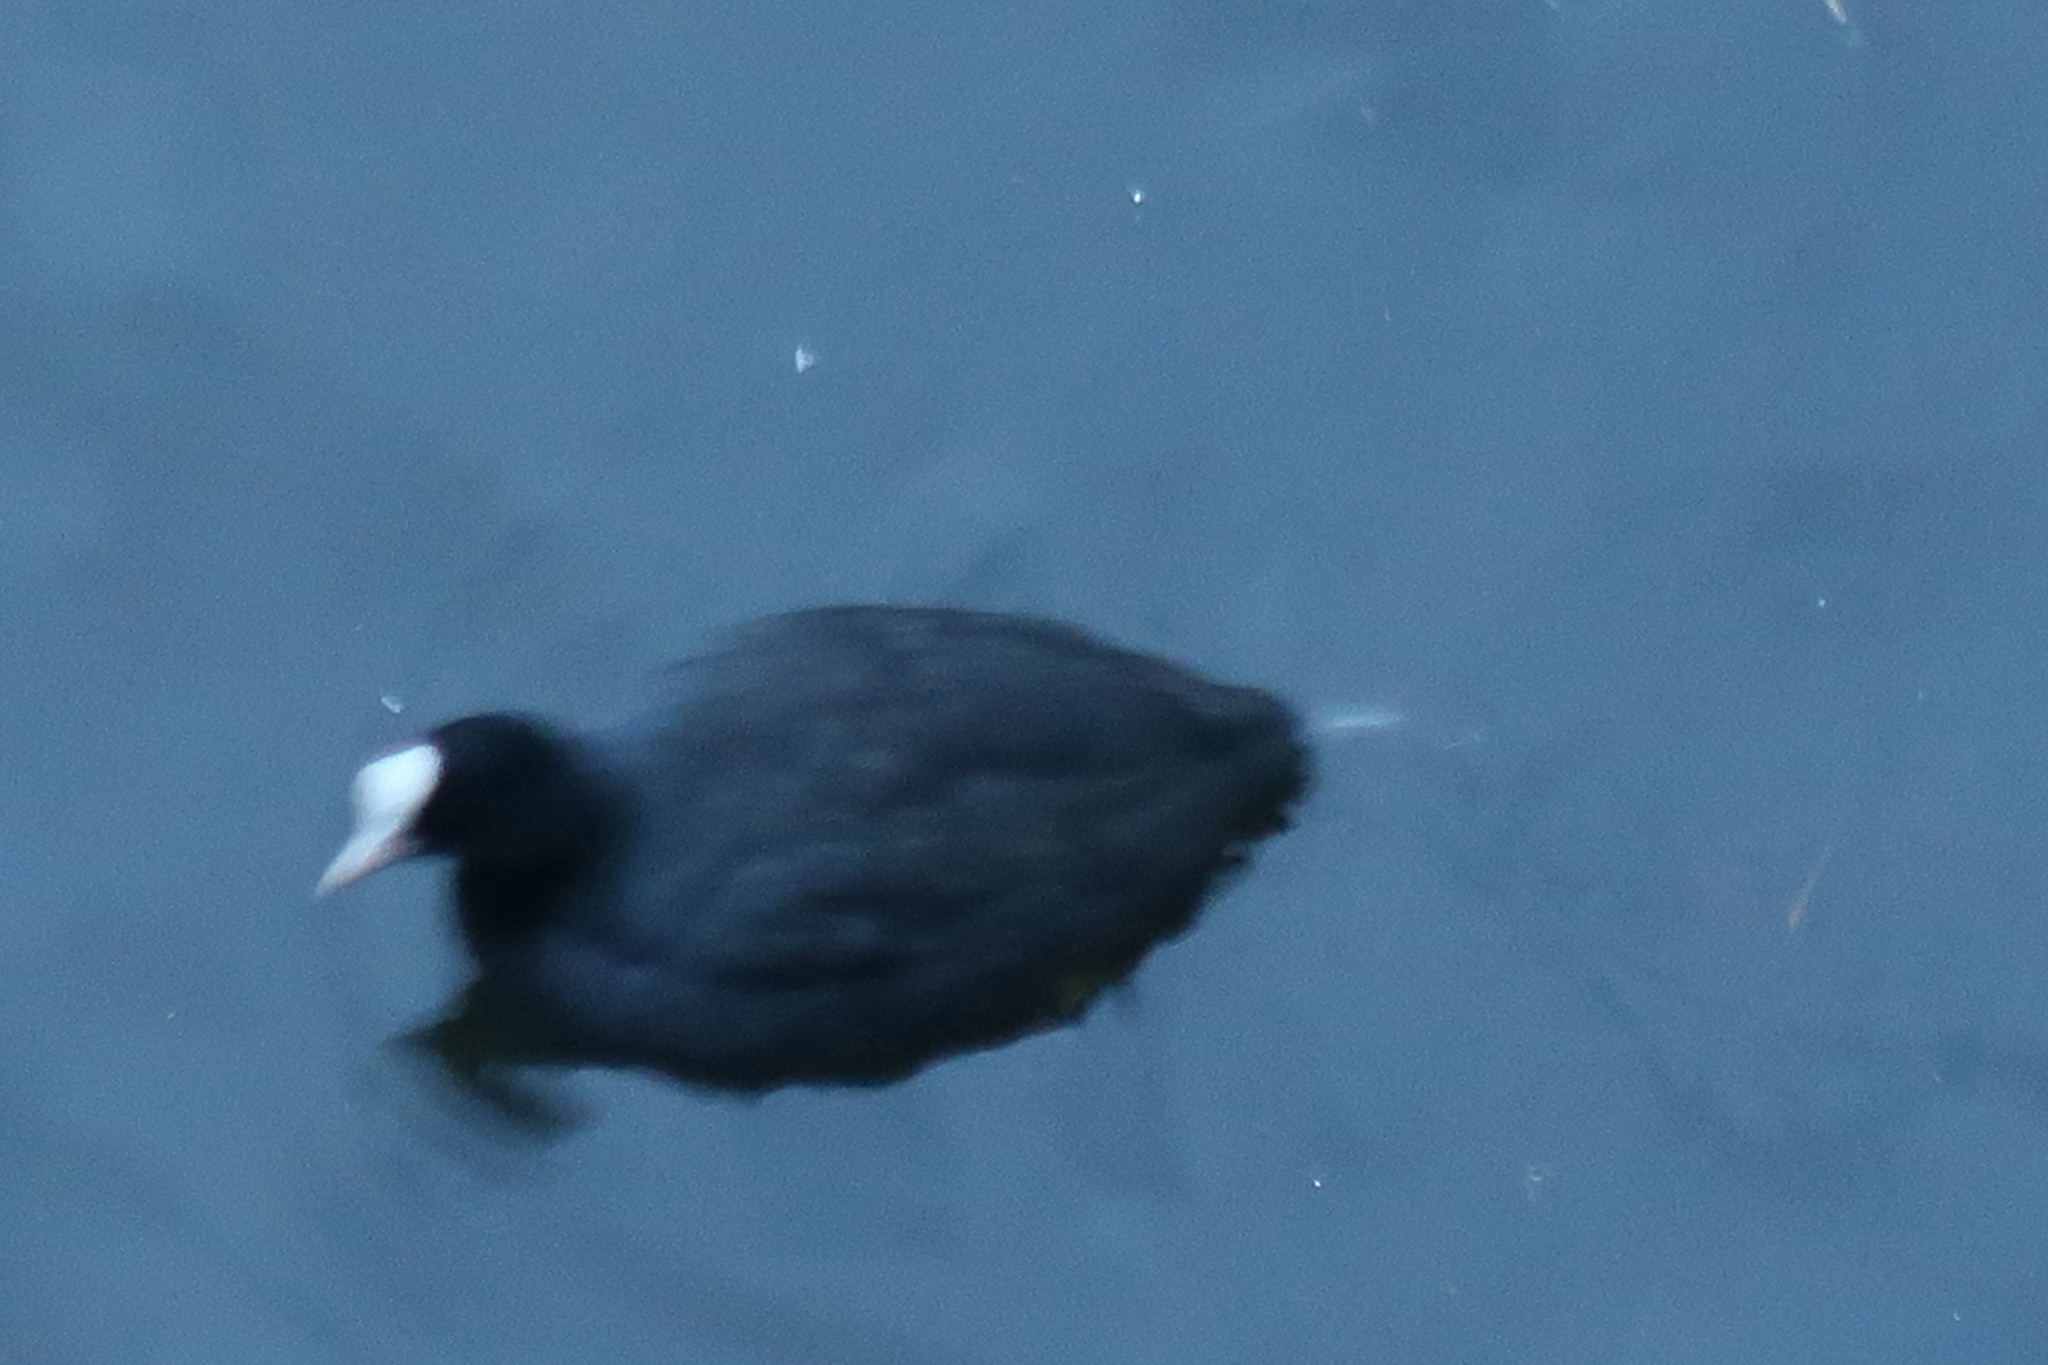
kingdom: Animalia
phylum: Chordata
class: Aves
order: Gruiformes
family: Rallidae
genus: Fulica
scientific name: Fulica atra
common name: Eurasian coot
